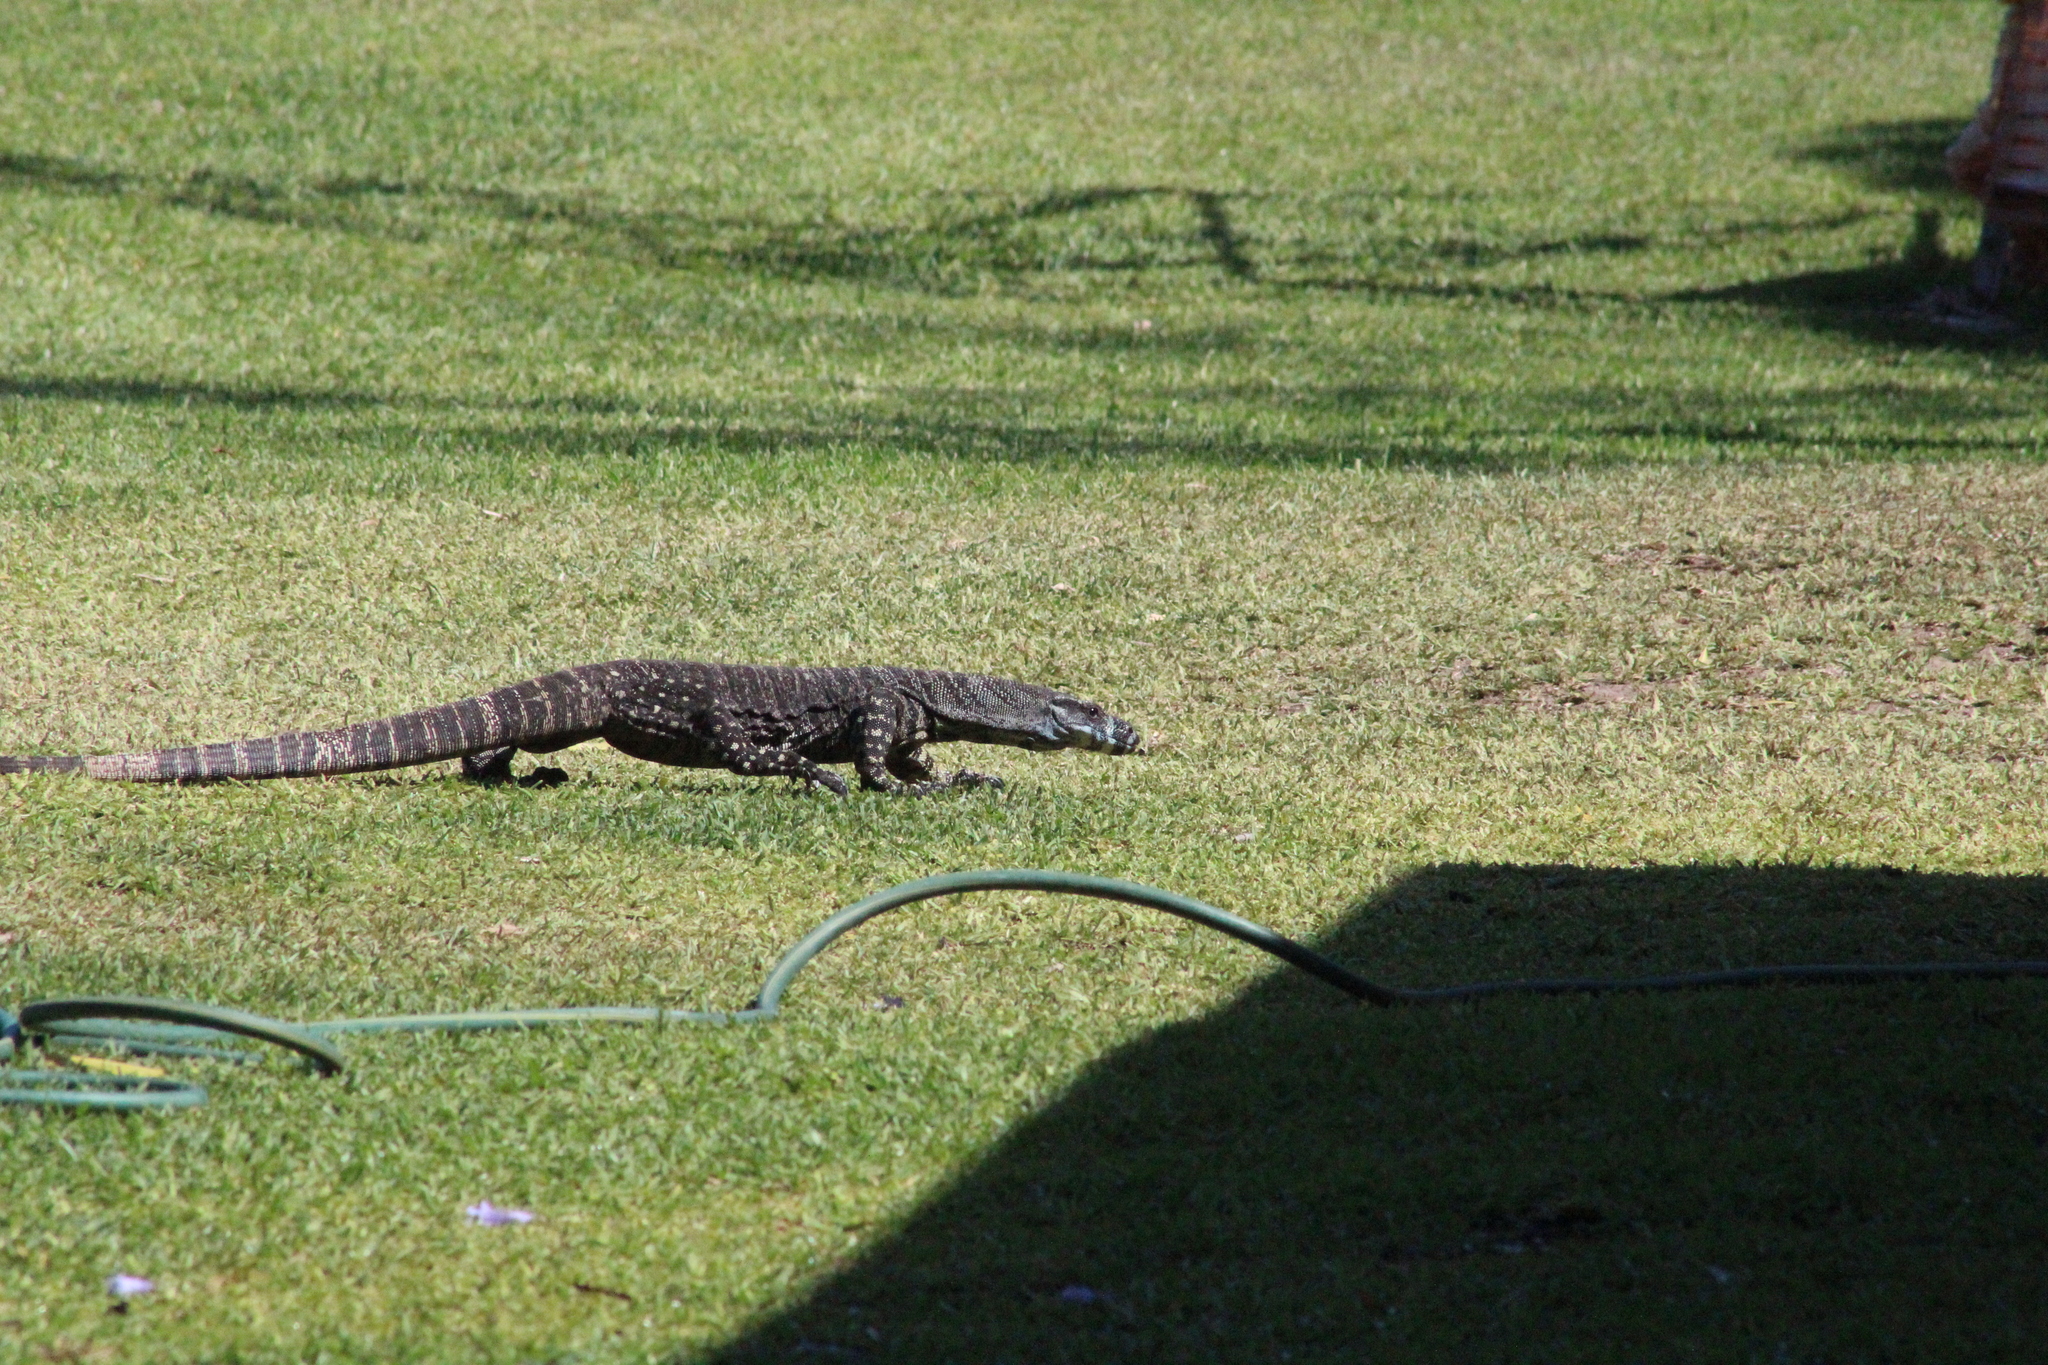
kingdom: Animalia
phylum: Chordata
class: Squamata
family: Varanidae
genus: Varanus
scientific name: Varanus varius
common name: Lace monitor
